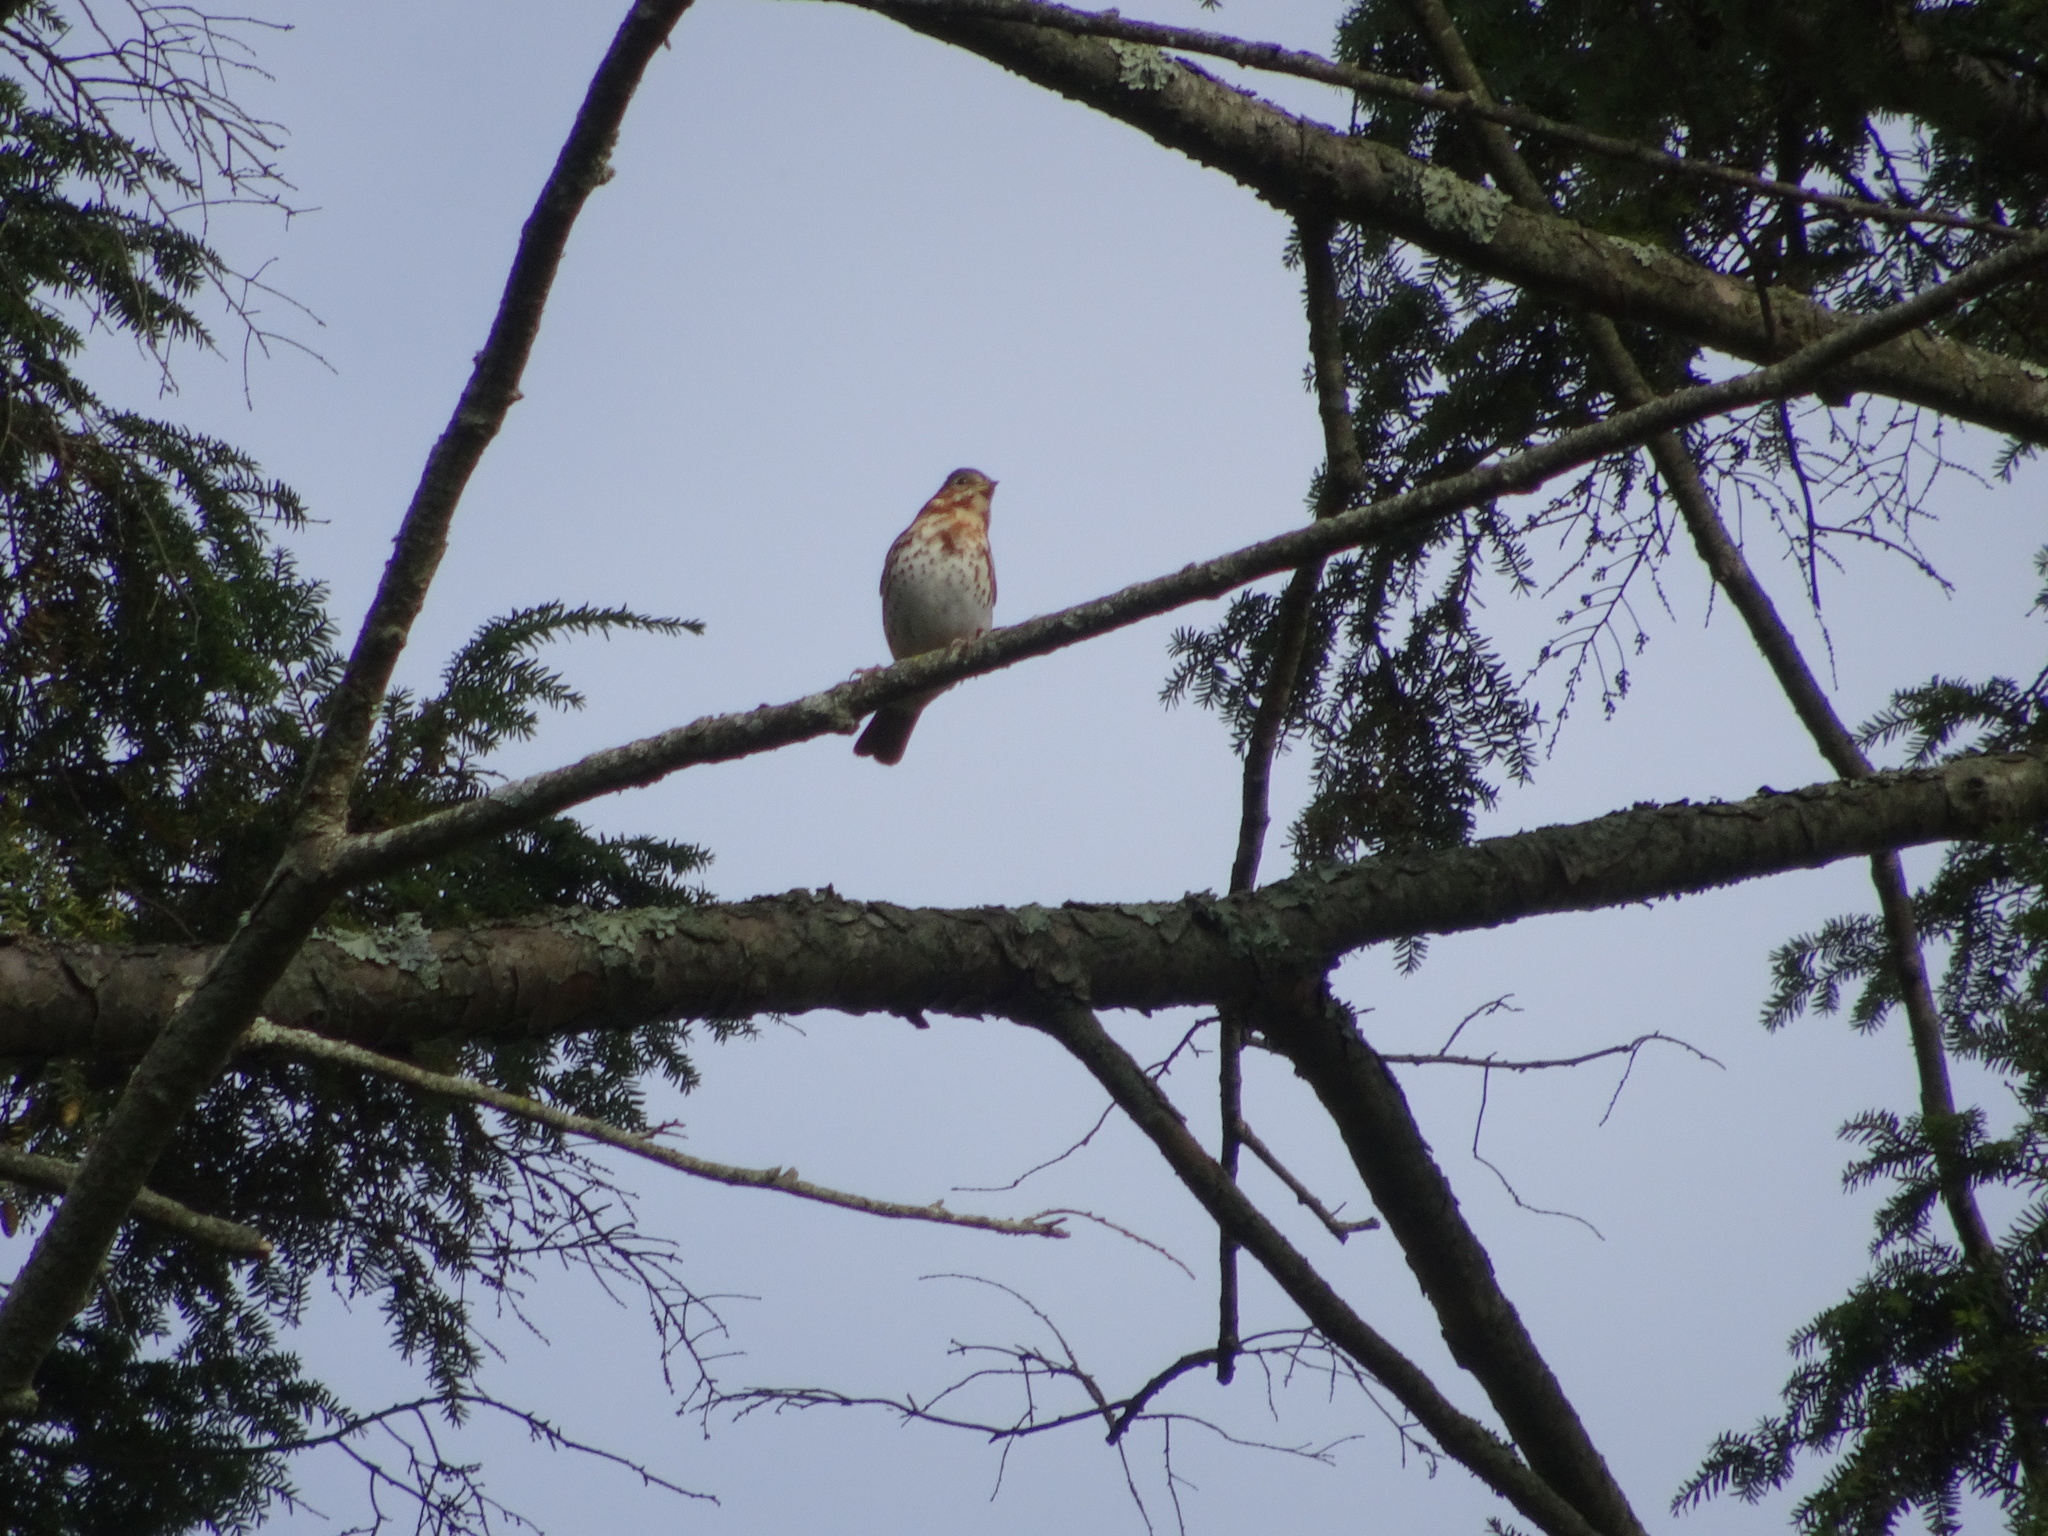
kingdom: Animalia
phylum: Chordata
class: Aves
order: Passeriformes
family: Passerellidae
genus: Passerella
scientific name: Passerella iliaca
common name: Fox sparrow
